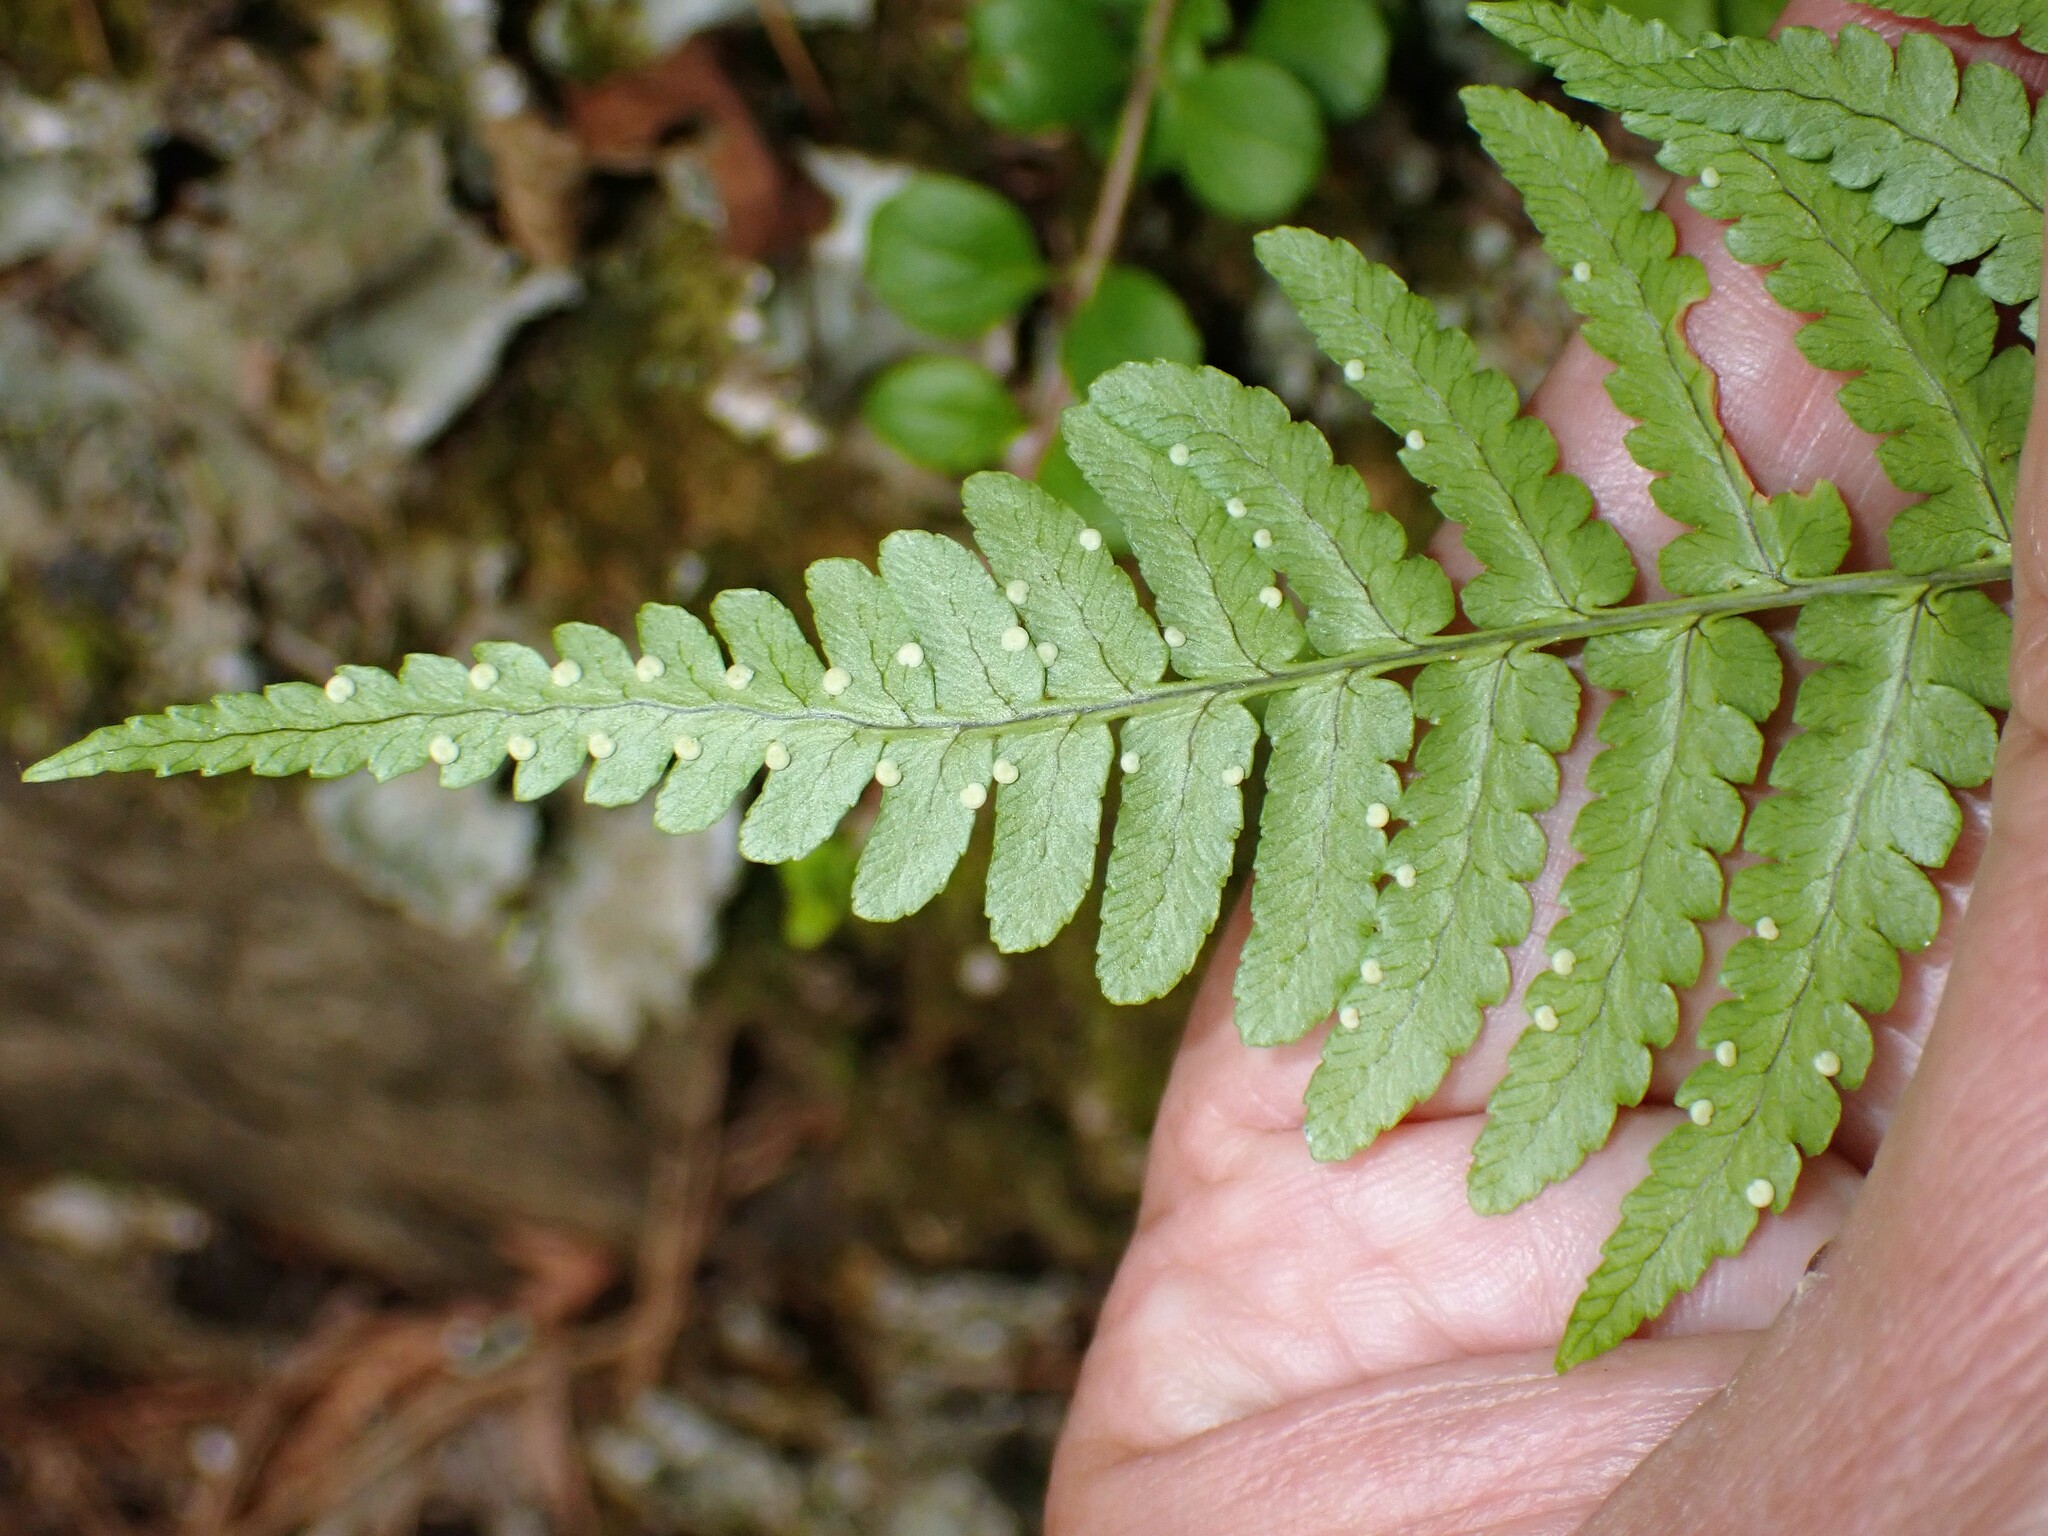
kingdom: Plantae
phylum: Tracheophyta
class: Polypodiopsida
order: Polypodiales
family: Dryopteridaceae
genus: Dryopteris
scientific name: Dryopteris marginalis
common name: Marginal wood fern
